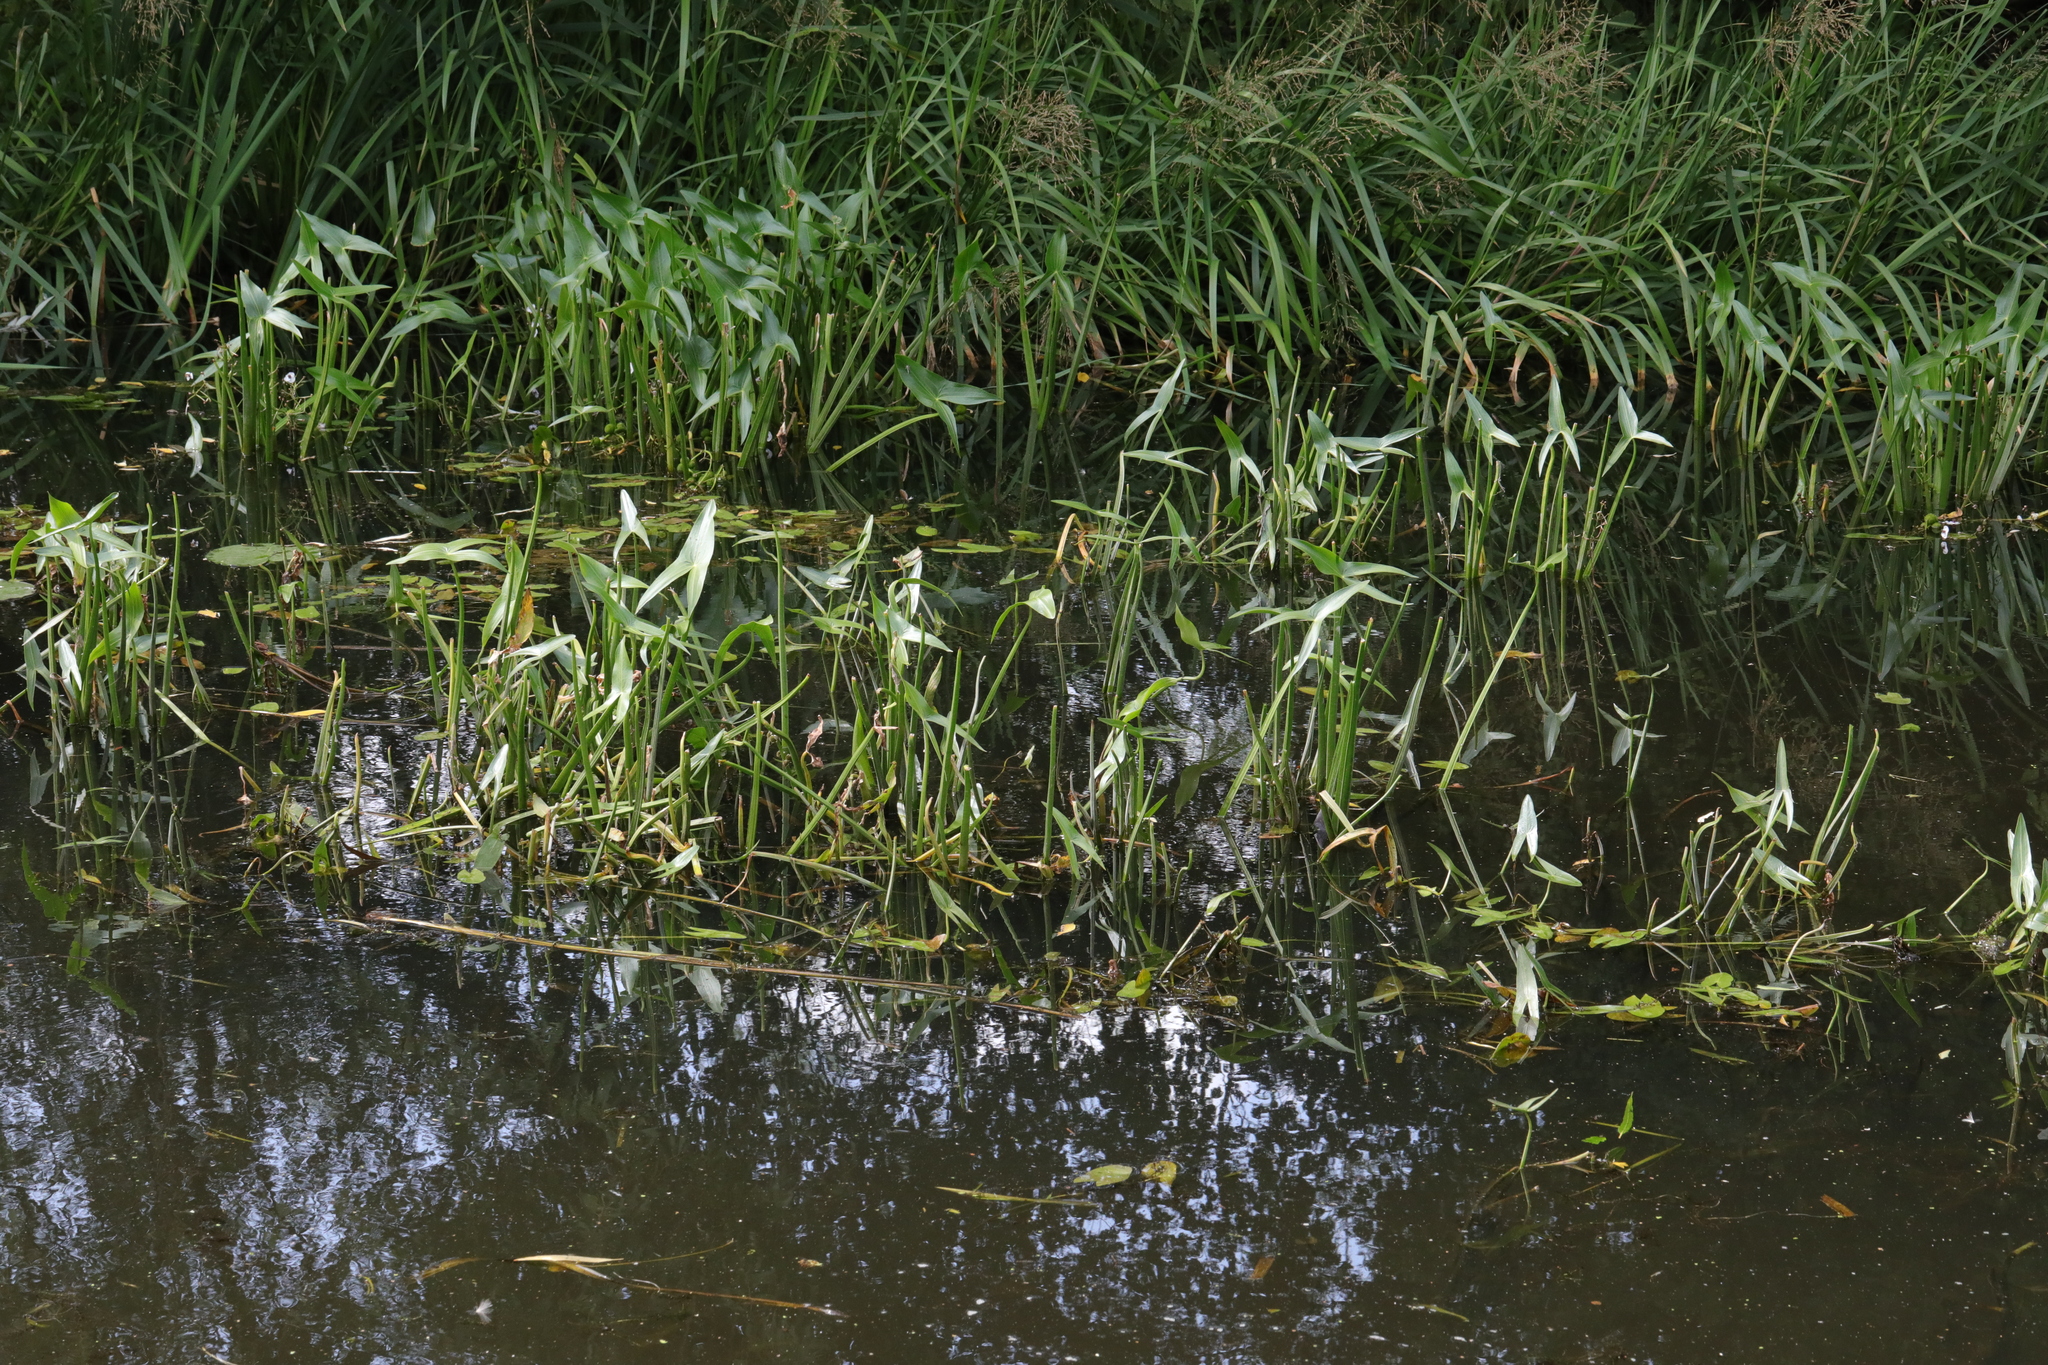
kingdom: Plantae
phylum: Tracheophyta
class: Liliopsida
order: Alismatales
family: Alismataceae
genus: Sagittaria
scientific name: Sagittaria sagittifolia
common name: Arrowhead
